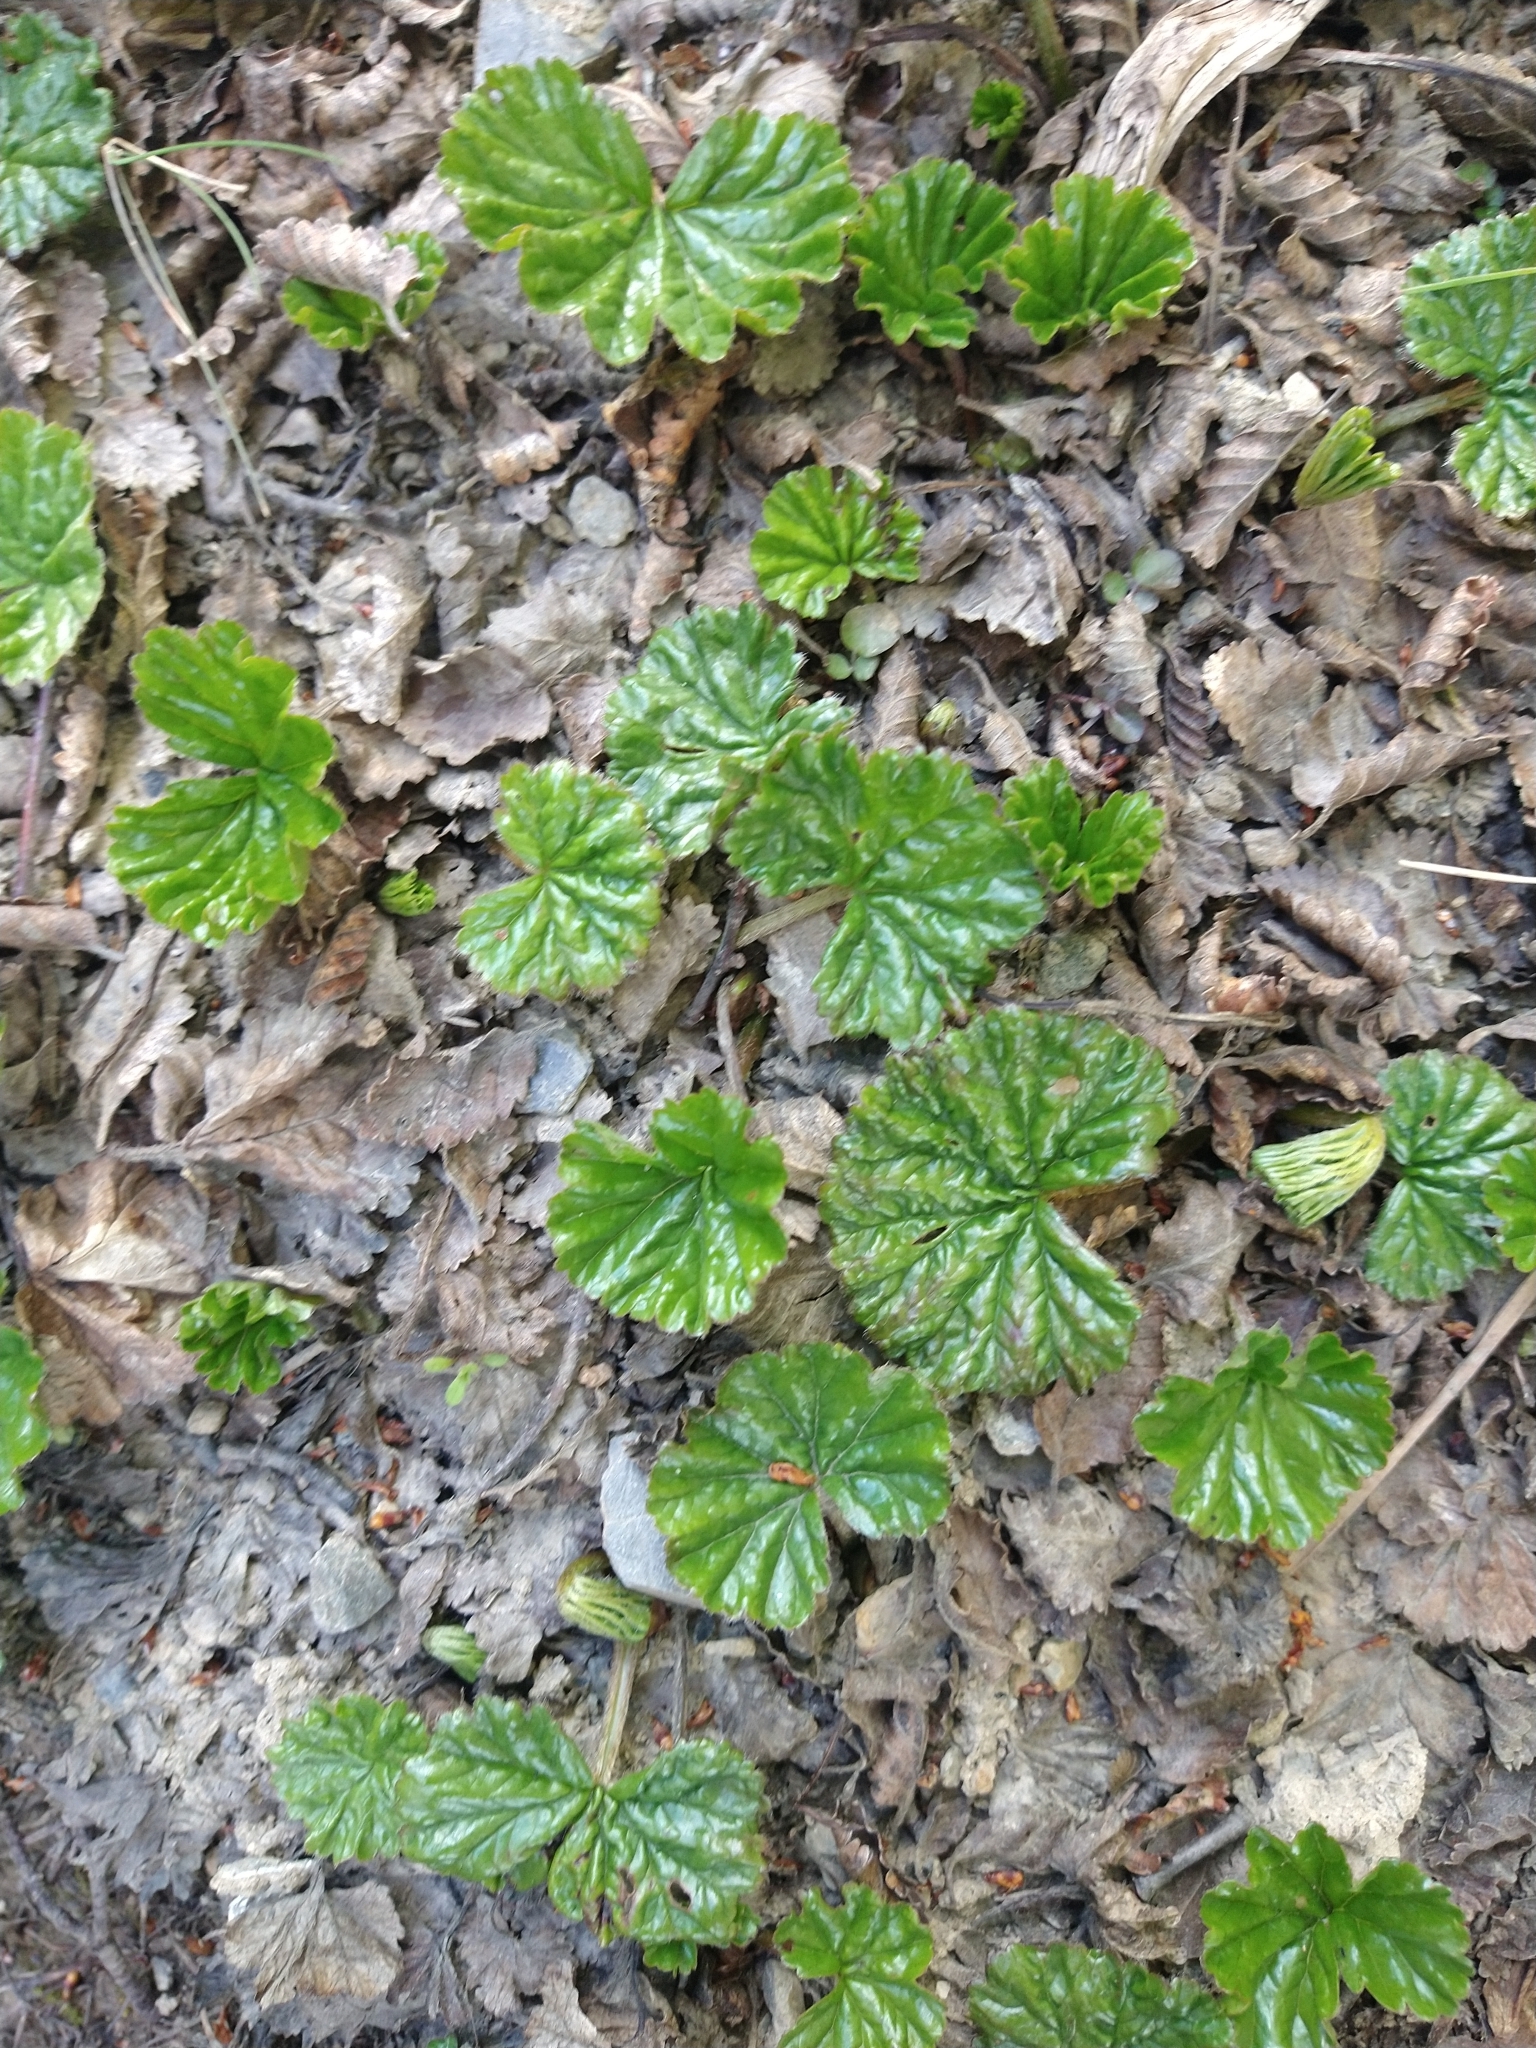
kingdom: Plantae
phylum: Tracheophyta
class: Magnoliopsida
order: Gunnerales
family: Gunneraceae
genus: Gunnera
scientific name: Gunnera magellanica
